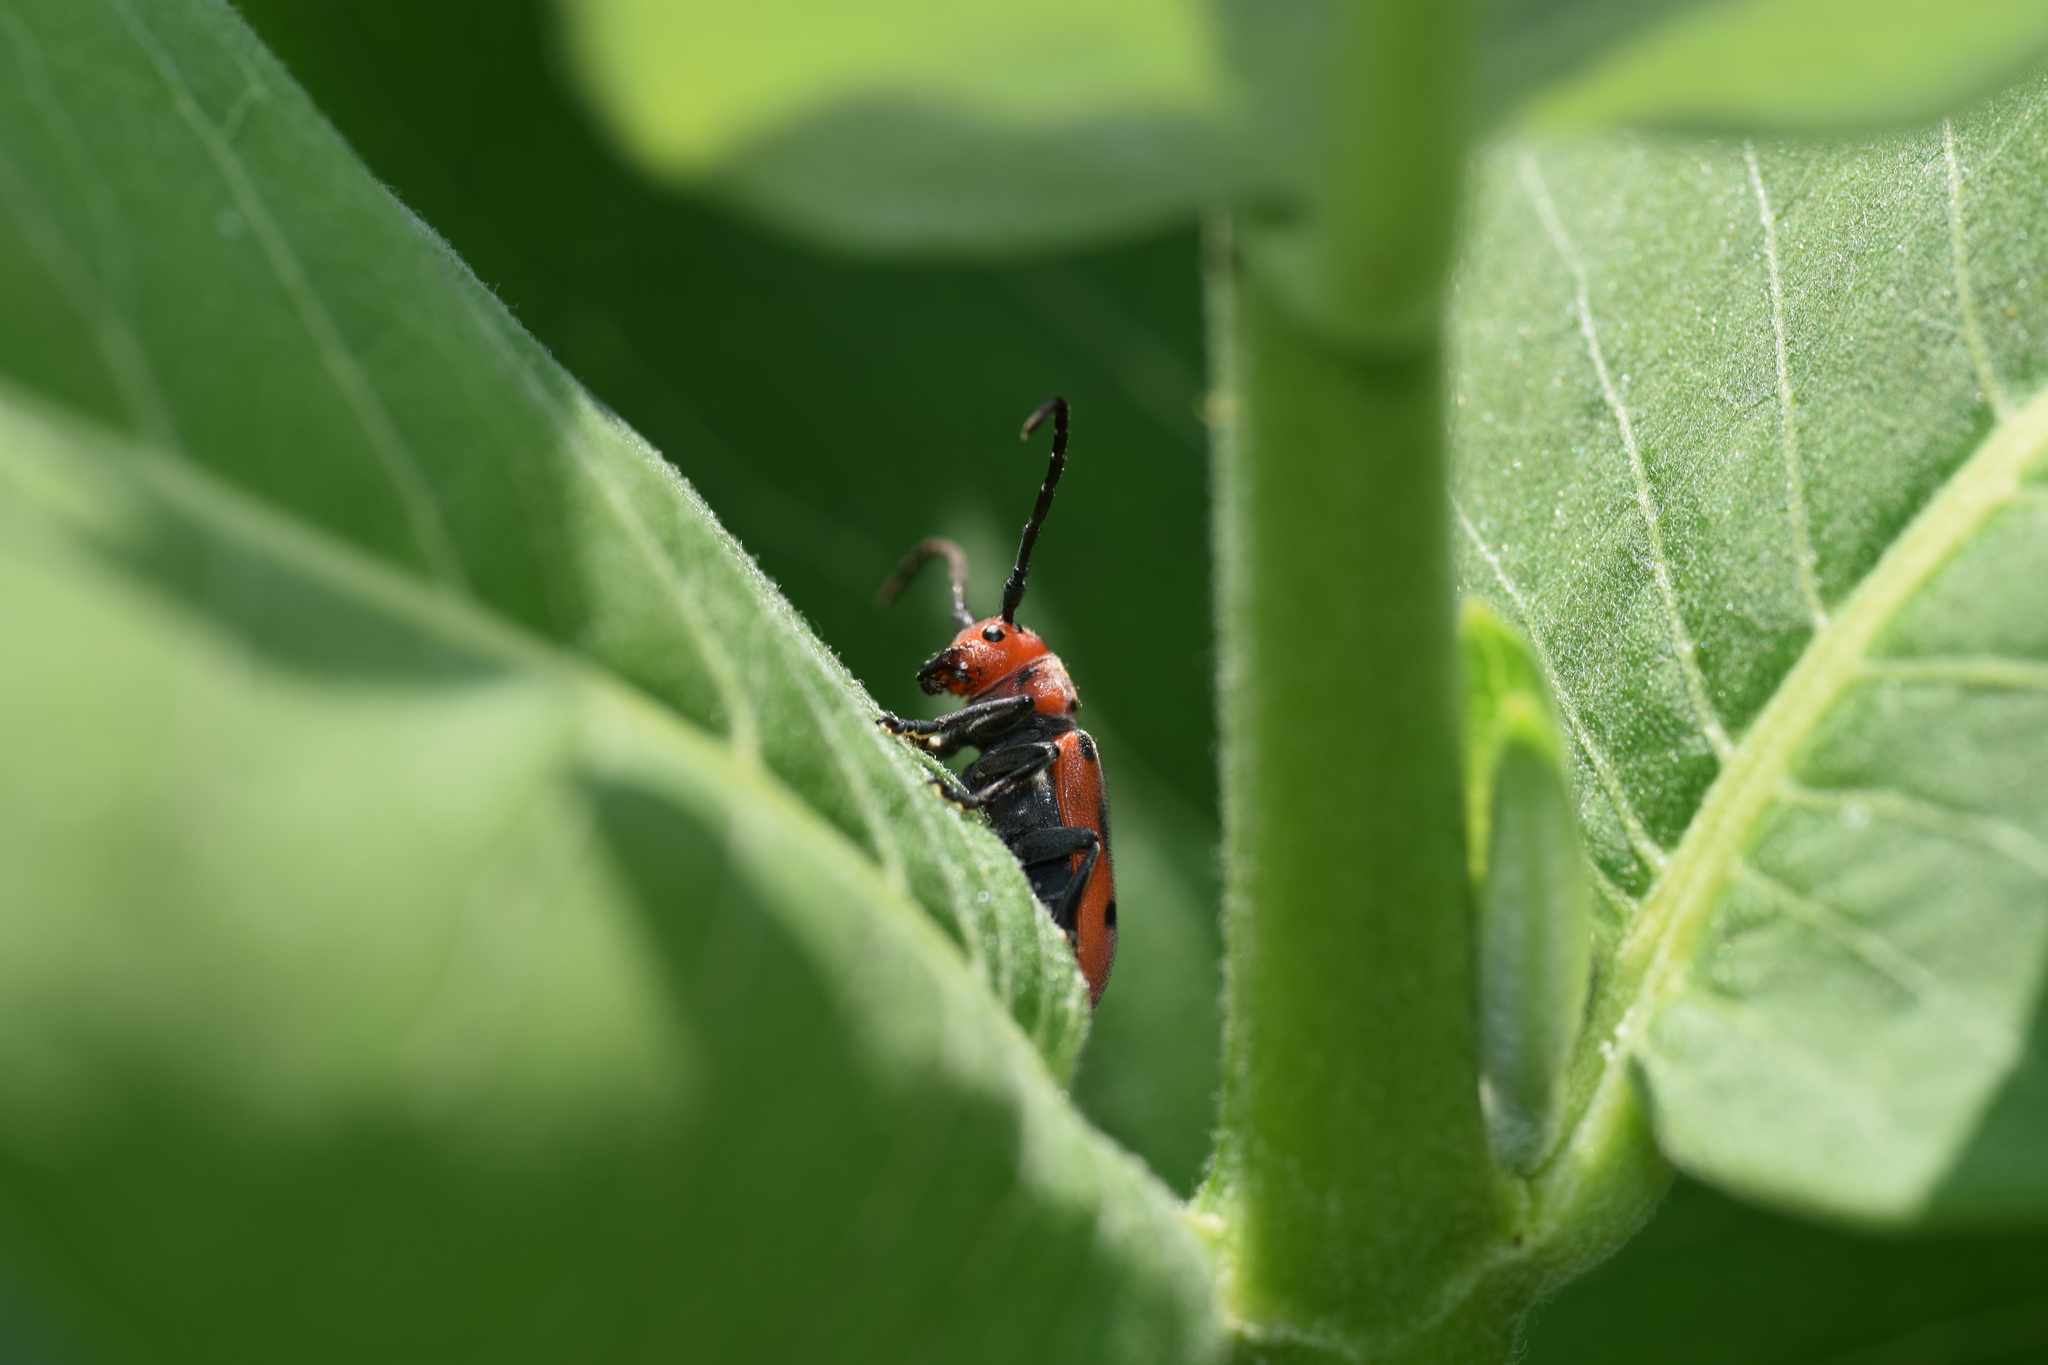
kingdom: Animalia
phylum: Arthropoda
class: Insecta
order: Coleoptera
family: Cerambycidae
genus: Tetraopes
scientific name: Tetraopes tetrophthalmus
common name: Red milkweed beetle
